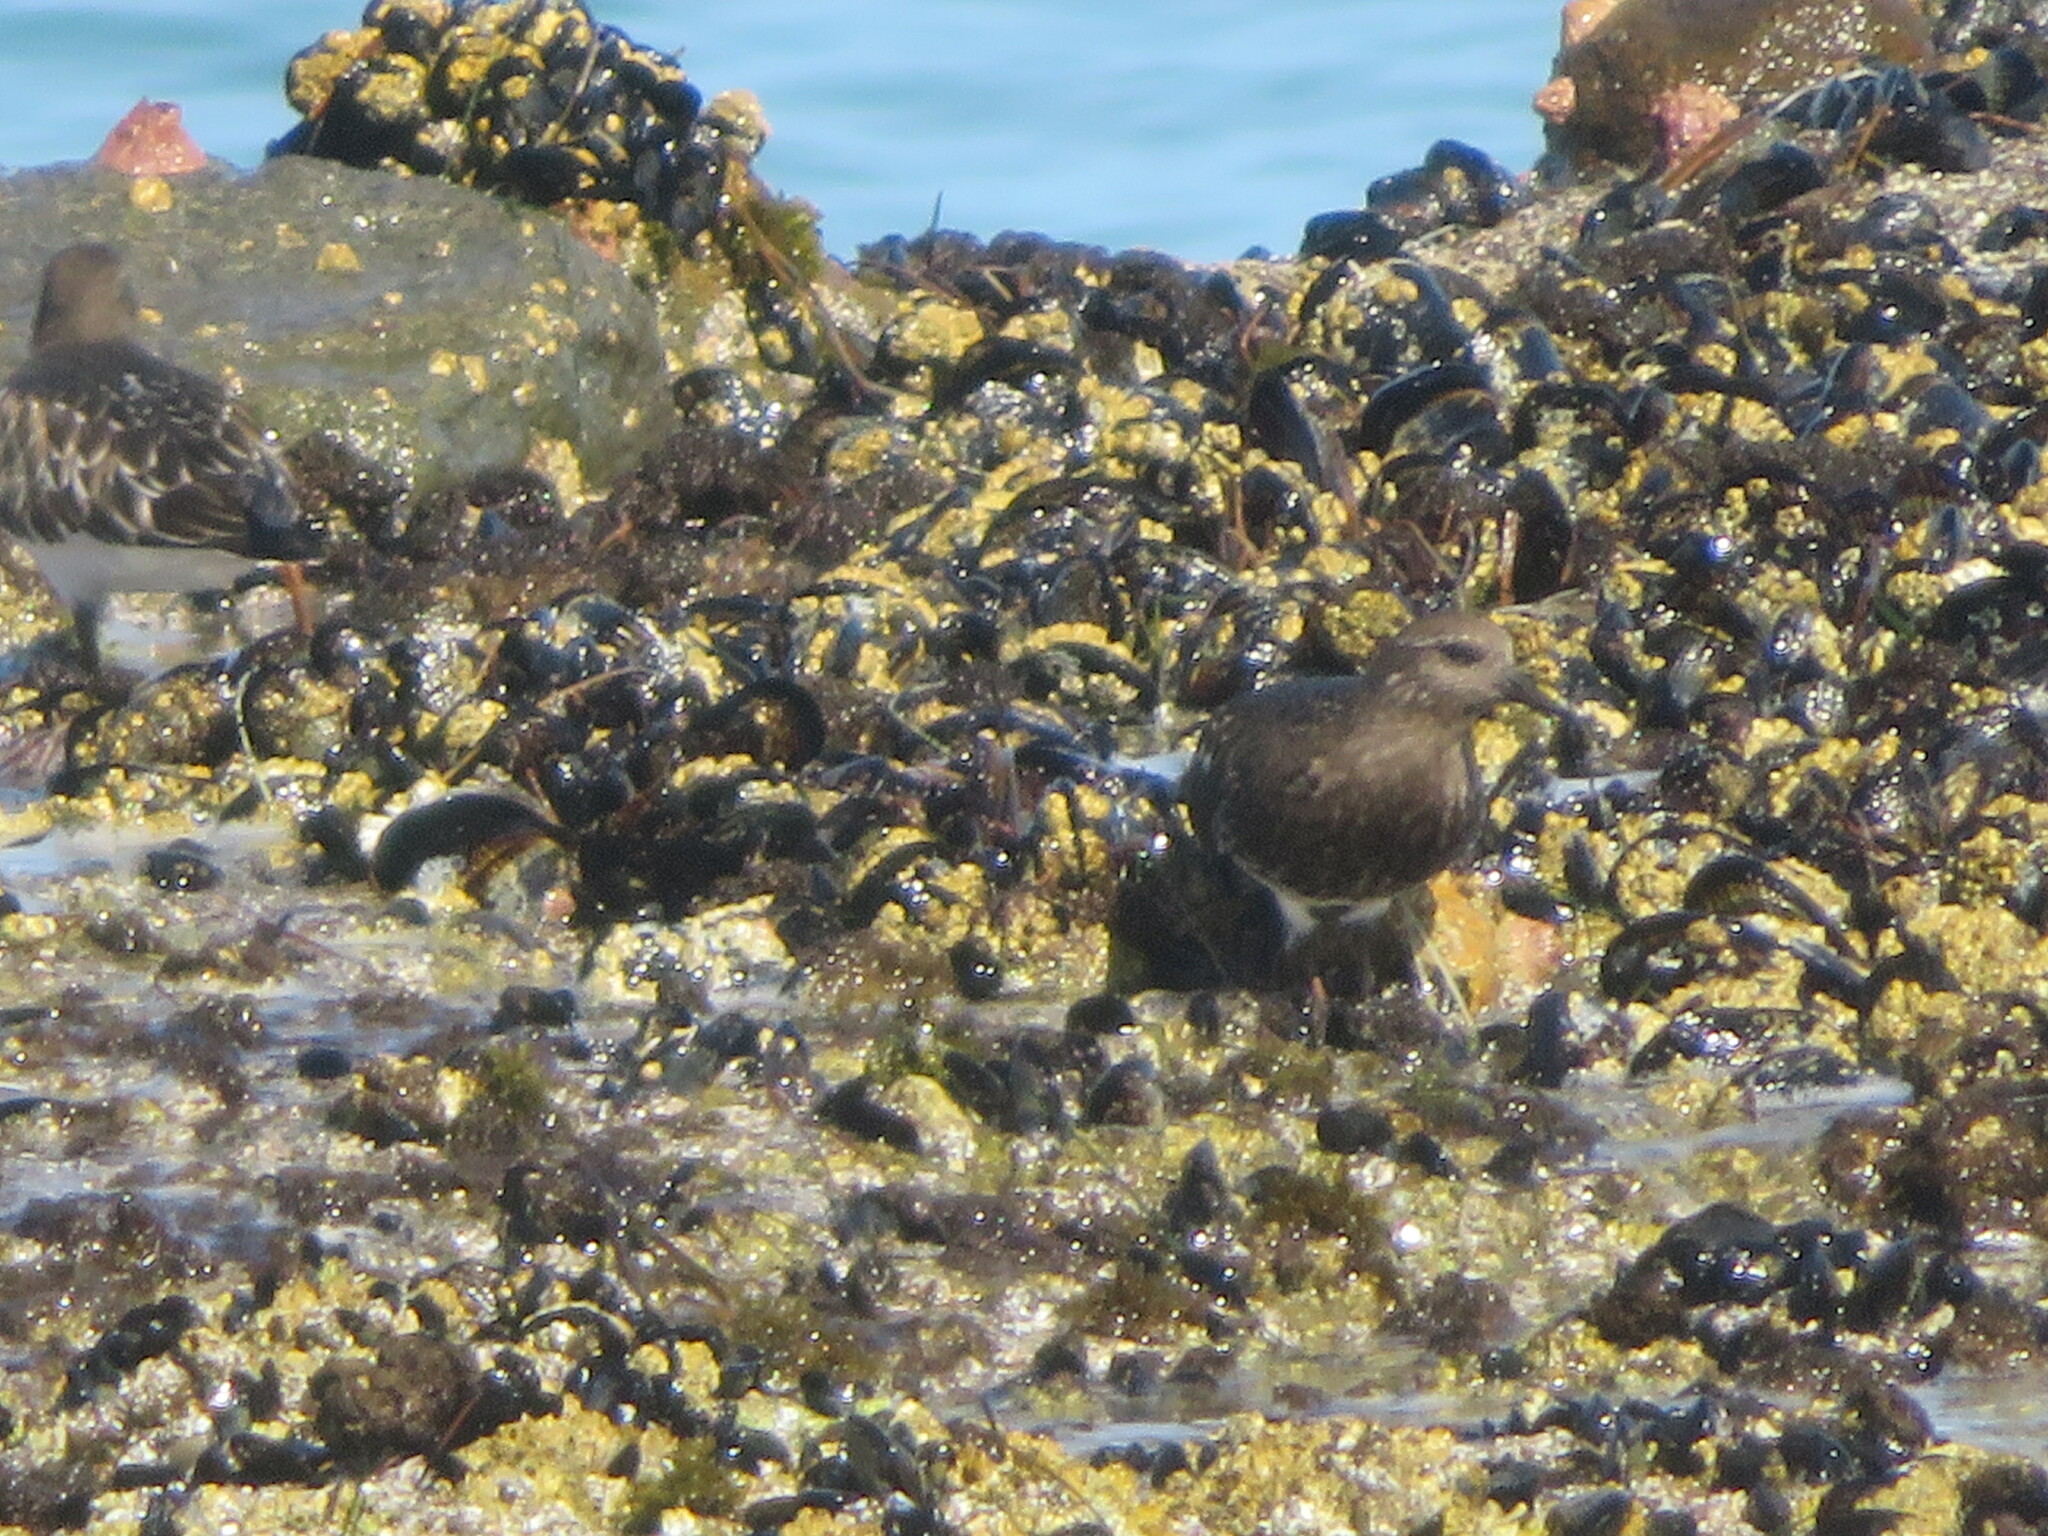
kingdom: Animalia
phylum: Chordata
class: Aves
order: Charadriiformes
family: Scolopacidae
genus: Arenaria
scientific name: Arenaria melanocephala
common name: Black turnstone
